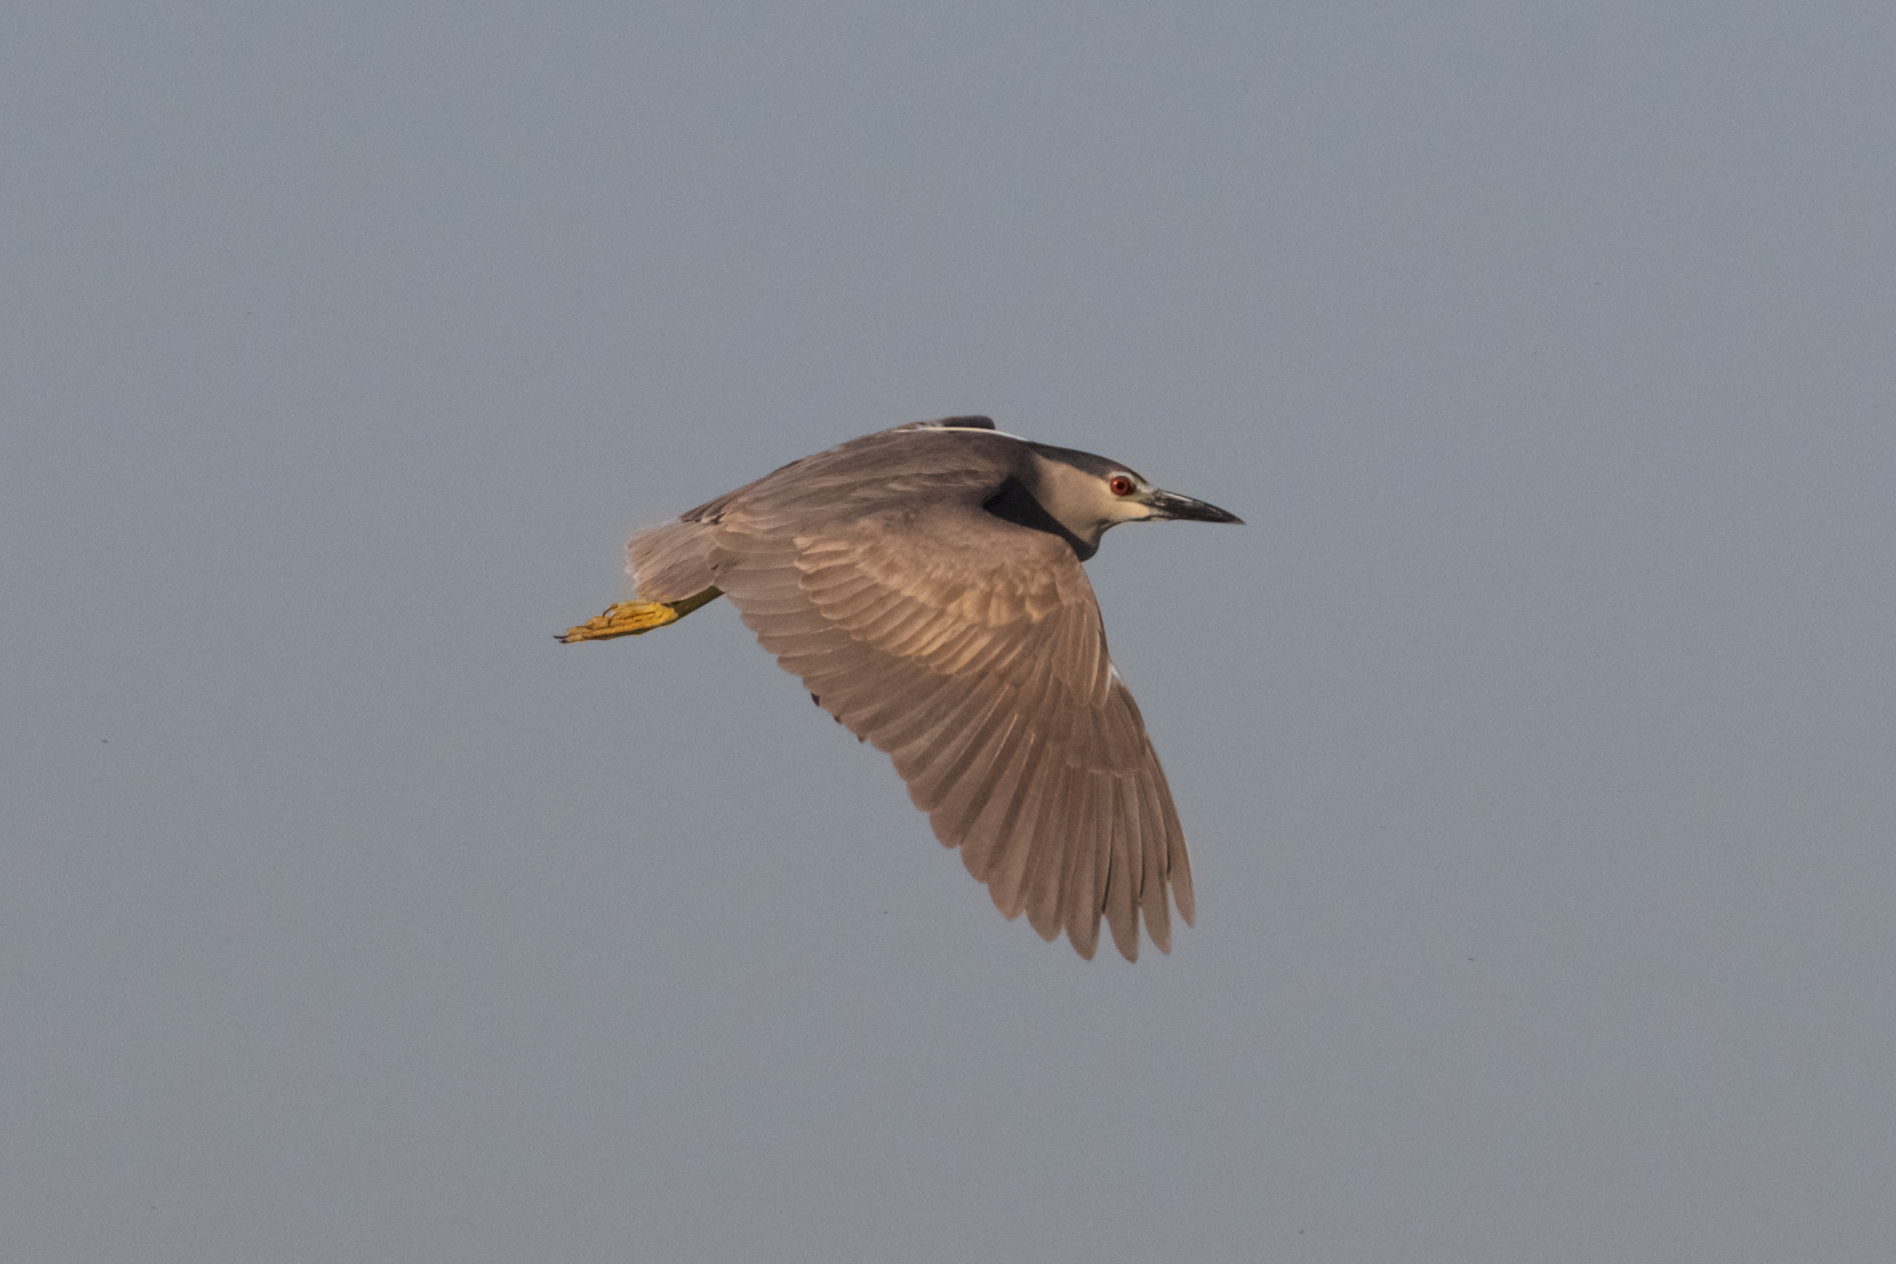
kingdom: Animalia
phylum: Chordata
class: Aves
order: Pelecaniformes
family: Ardeidae
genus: Nycticorax
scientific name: Nycticorax nycticorax
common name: Black-crowned night heron
